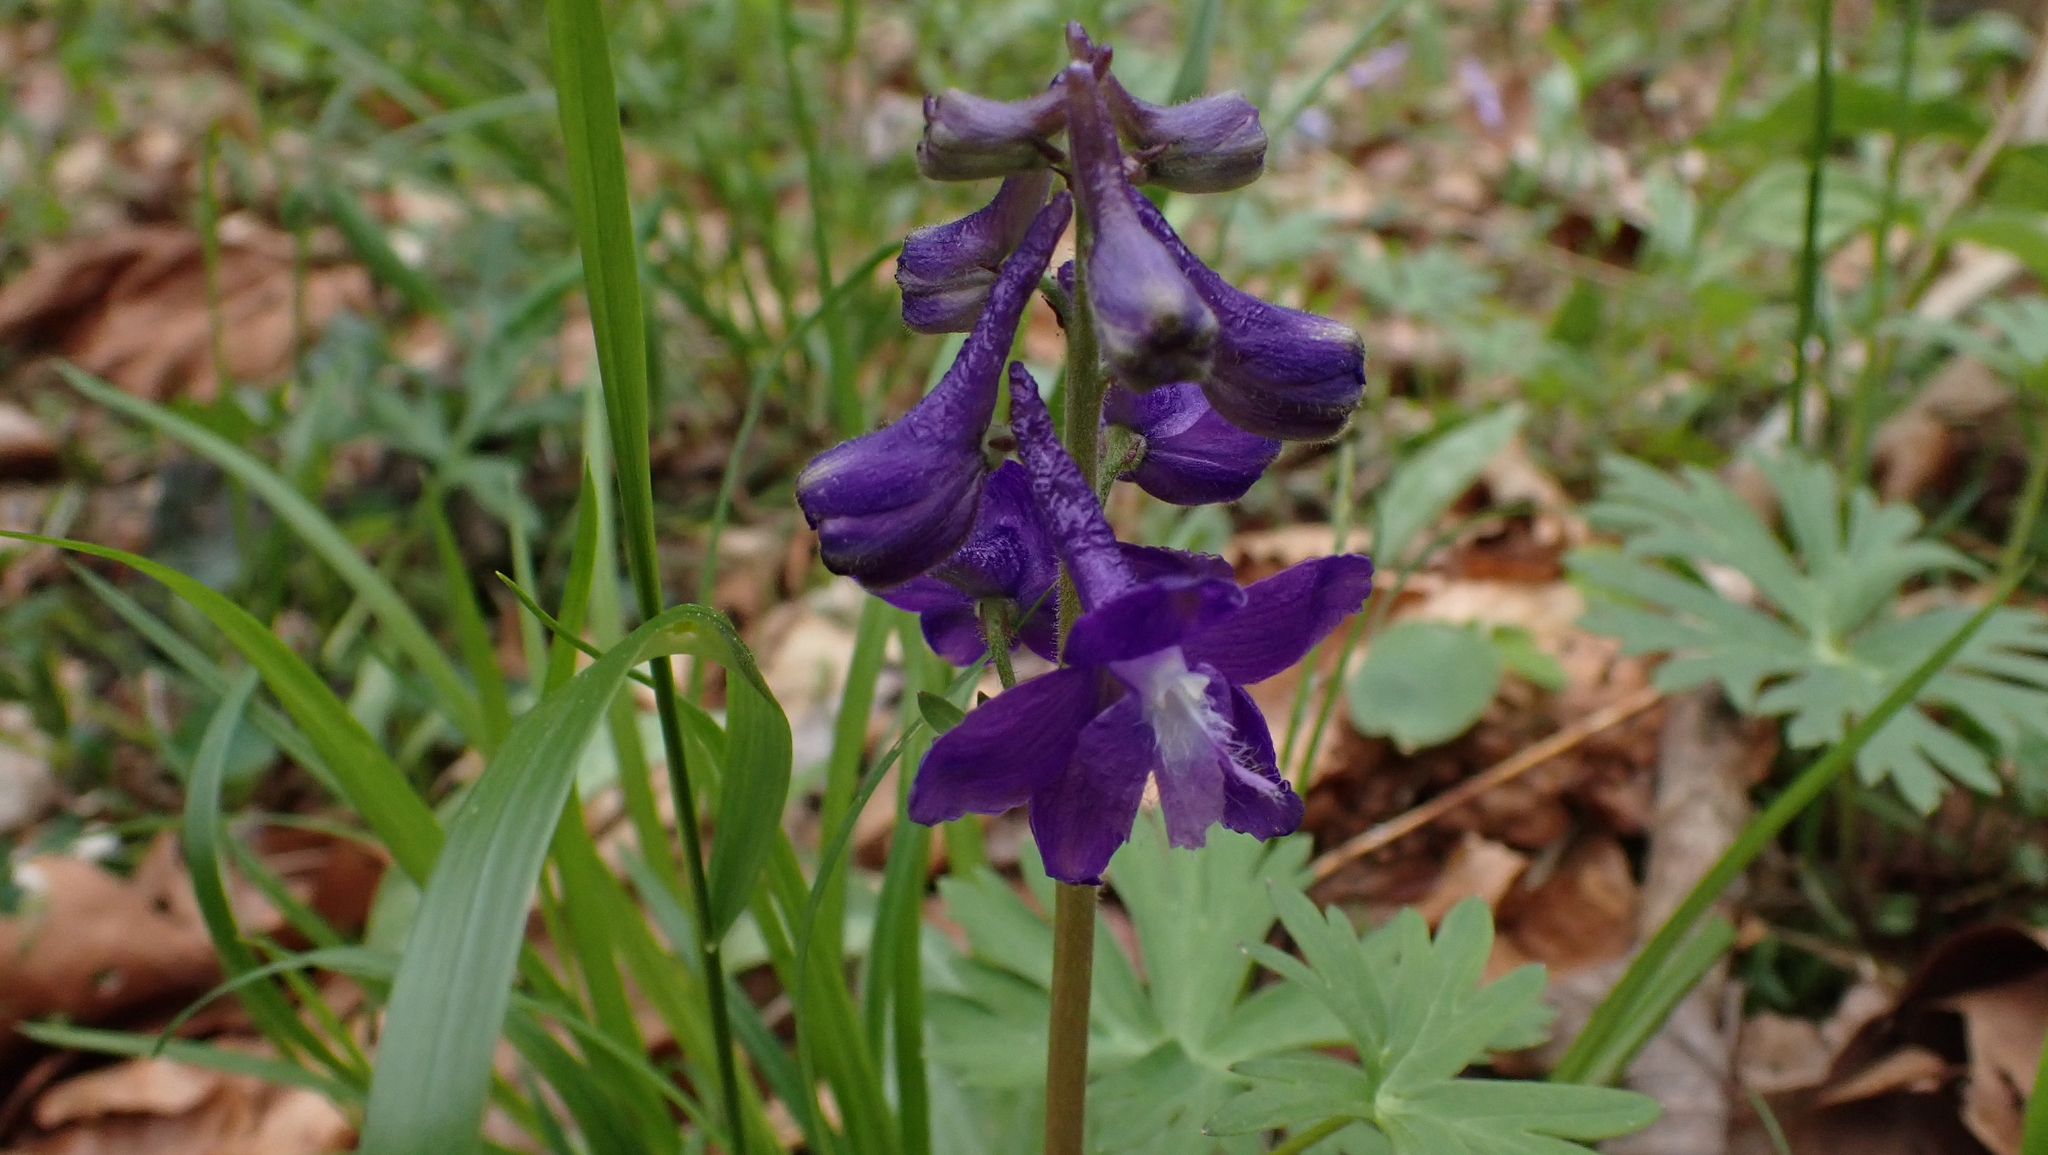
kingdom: Plantae
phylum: Tracheophyta
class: Magnoliopsida
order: Ranunculales
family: Ranunculaceae
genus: Delphinium
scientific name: Delphinium tricorne
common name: Dwarf larkspur
